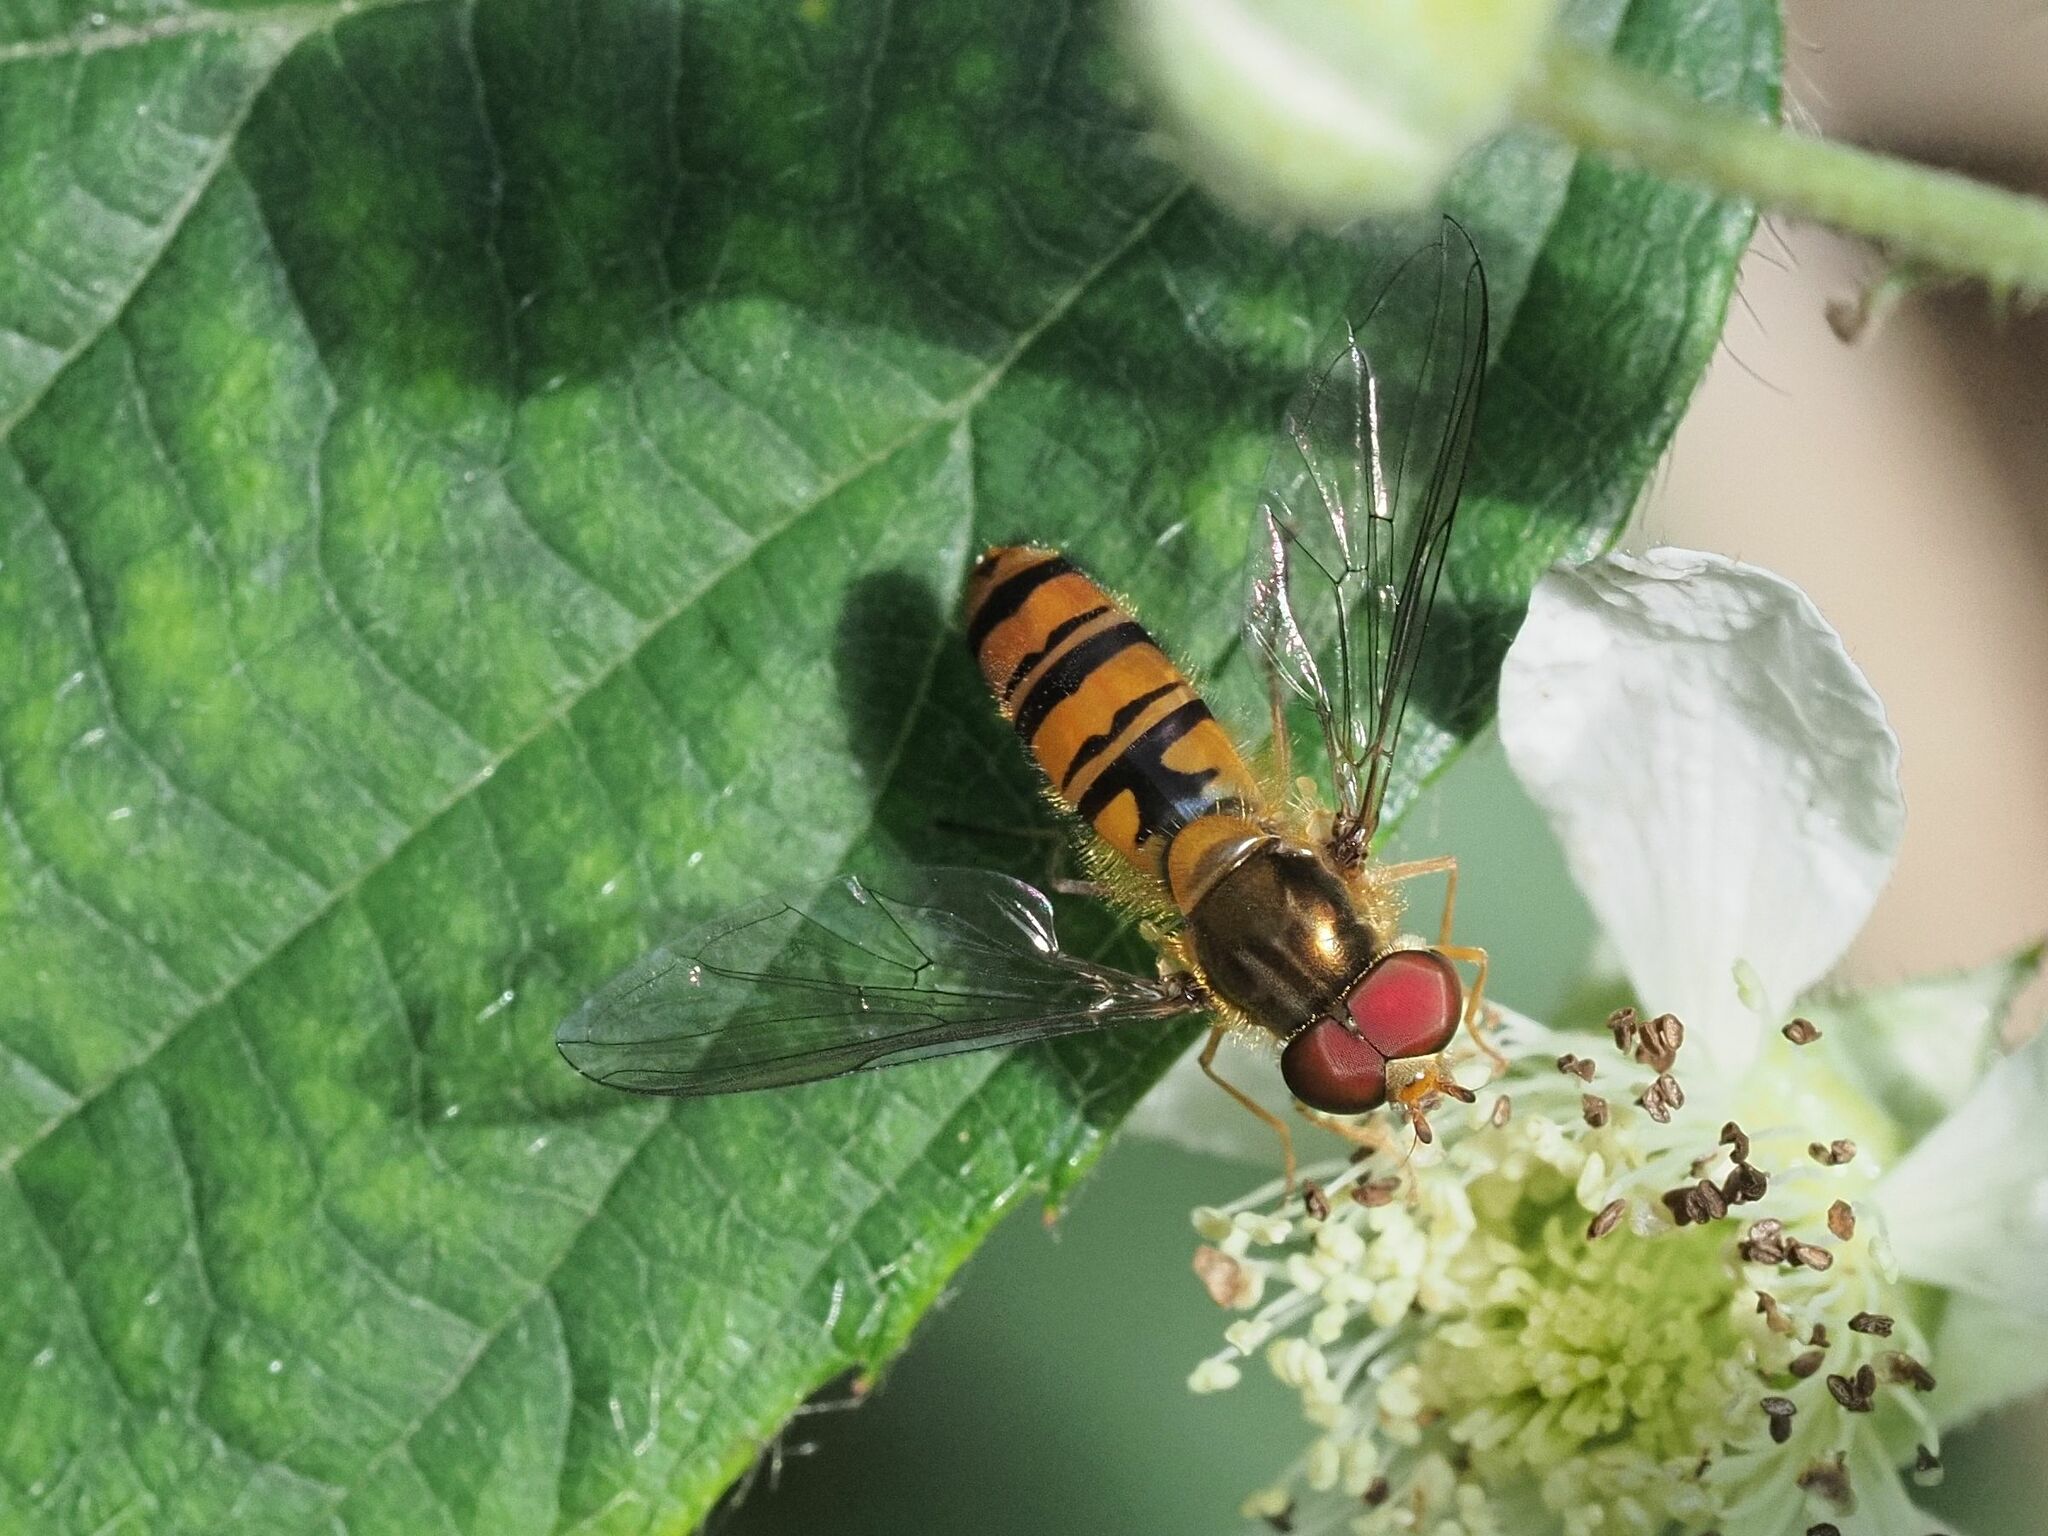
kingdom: Animalia
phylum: Arthropoda
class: Insecta
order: Diptera
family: Syrphidae
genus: Episyrphus
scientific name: Episyrphus balteatus
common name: Marmalade hoverfly
